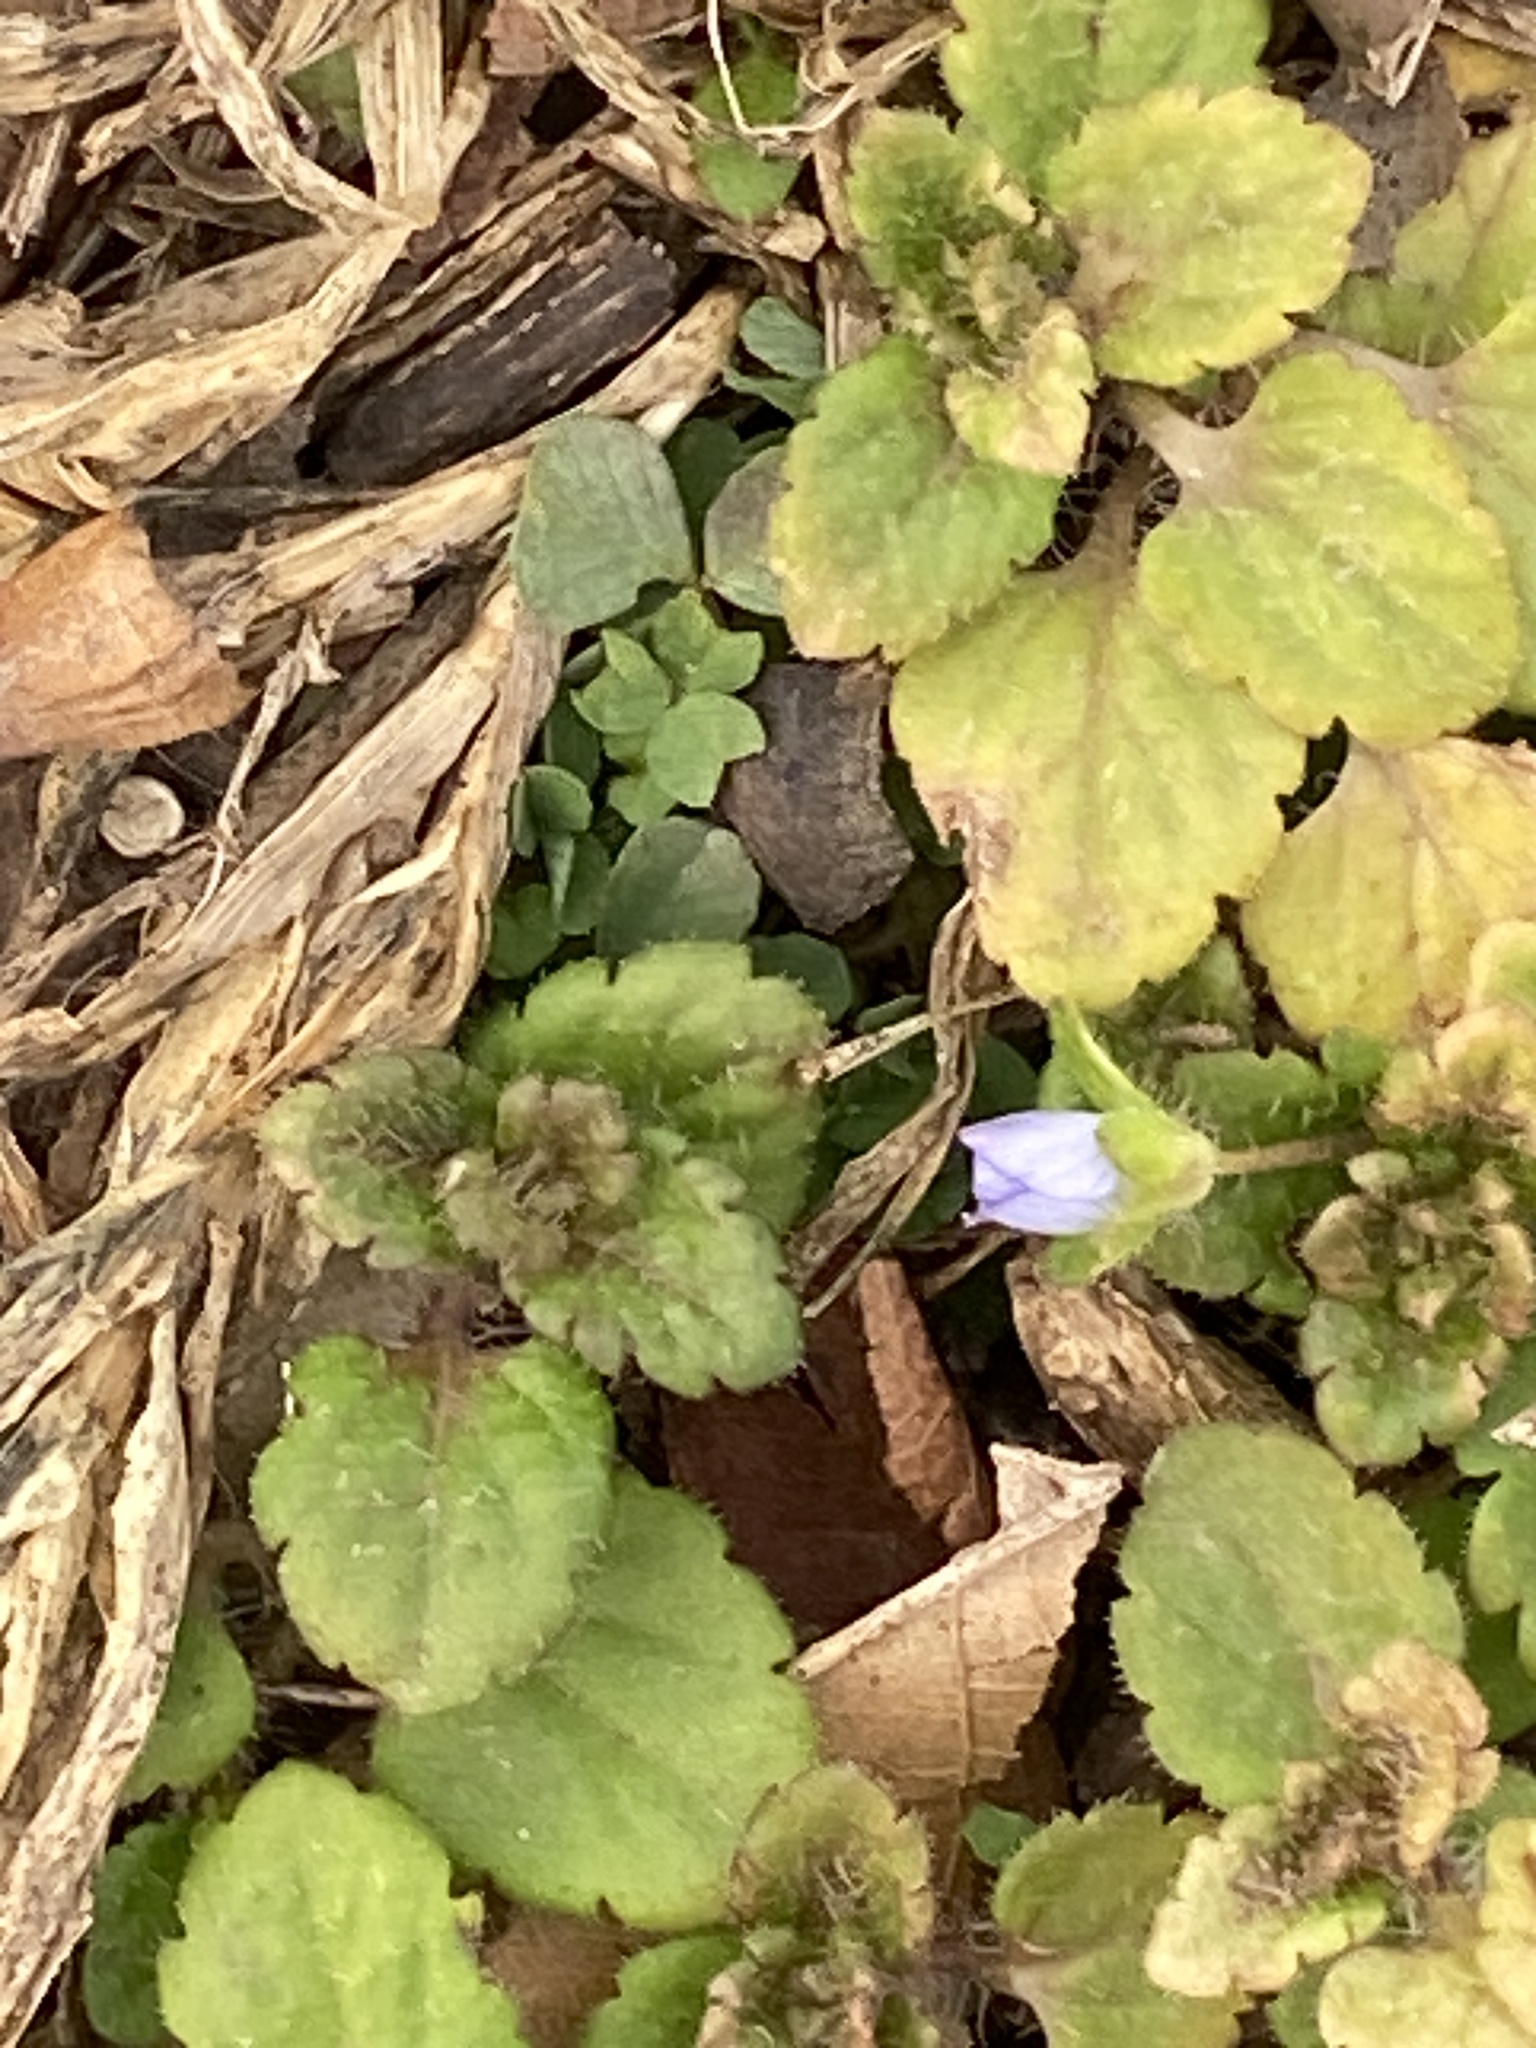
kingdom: Plantae
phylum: Tracheophyta
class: Magnoliopsida
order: Lamiales
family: Plantaginaceae
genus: Veronica
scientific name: Veronica persica
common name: Common field-speedwell
